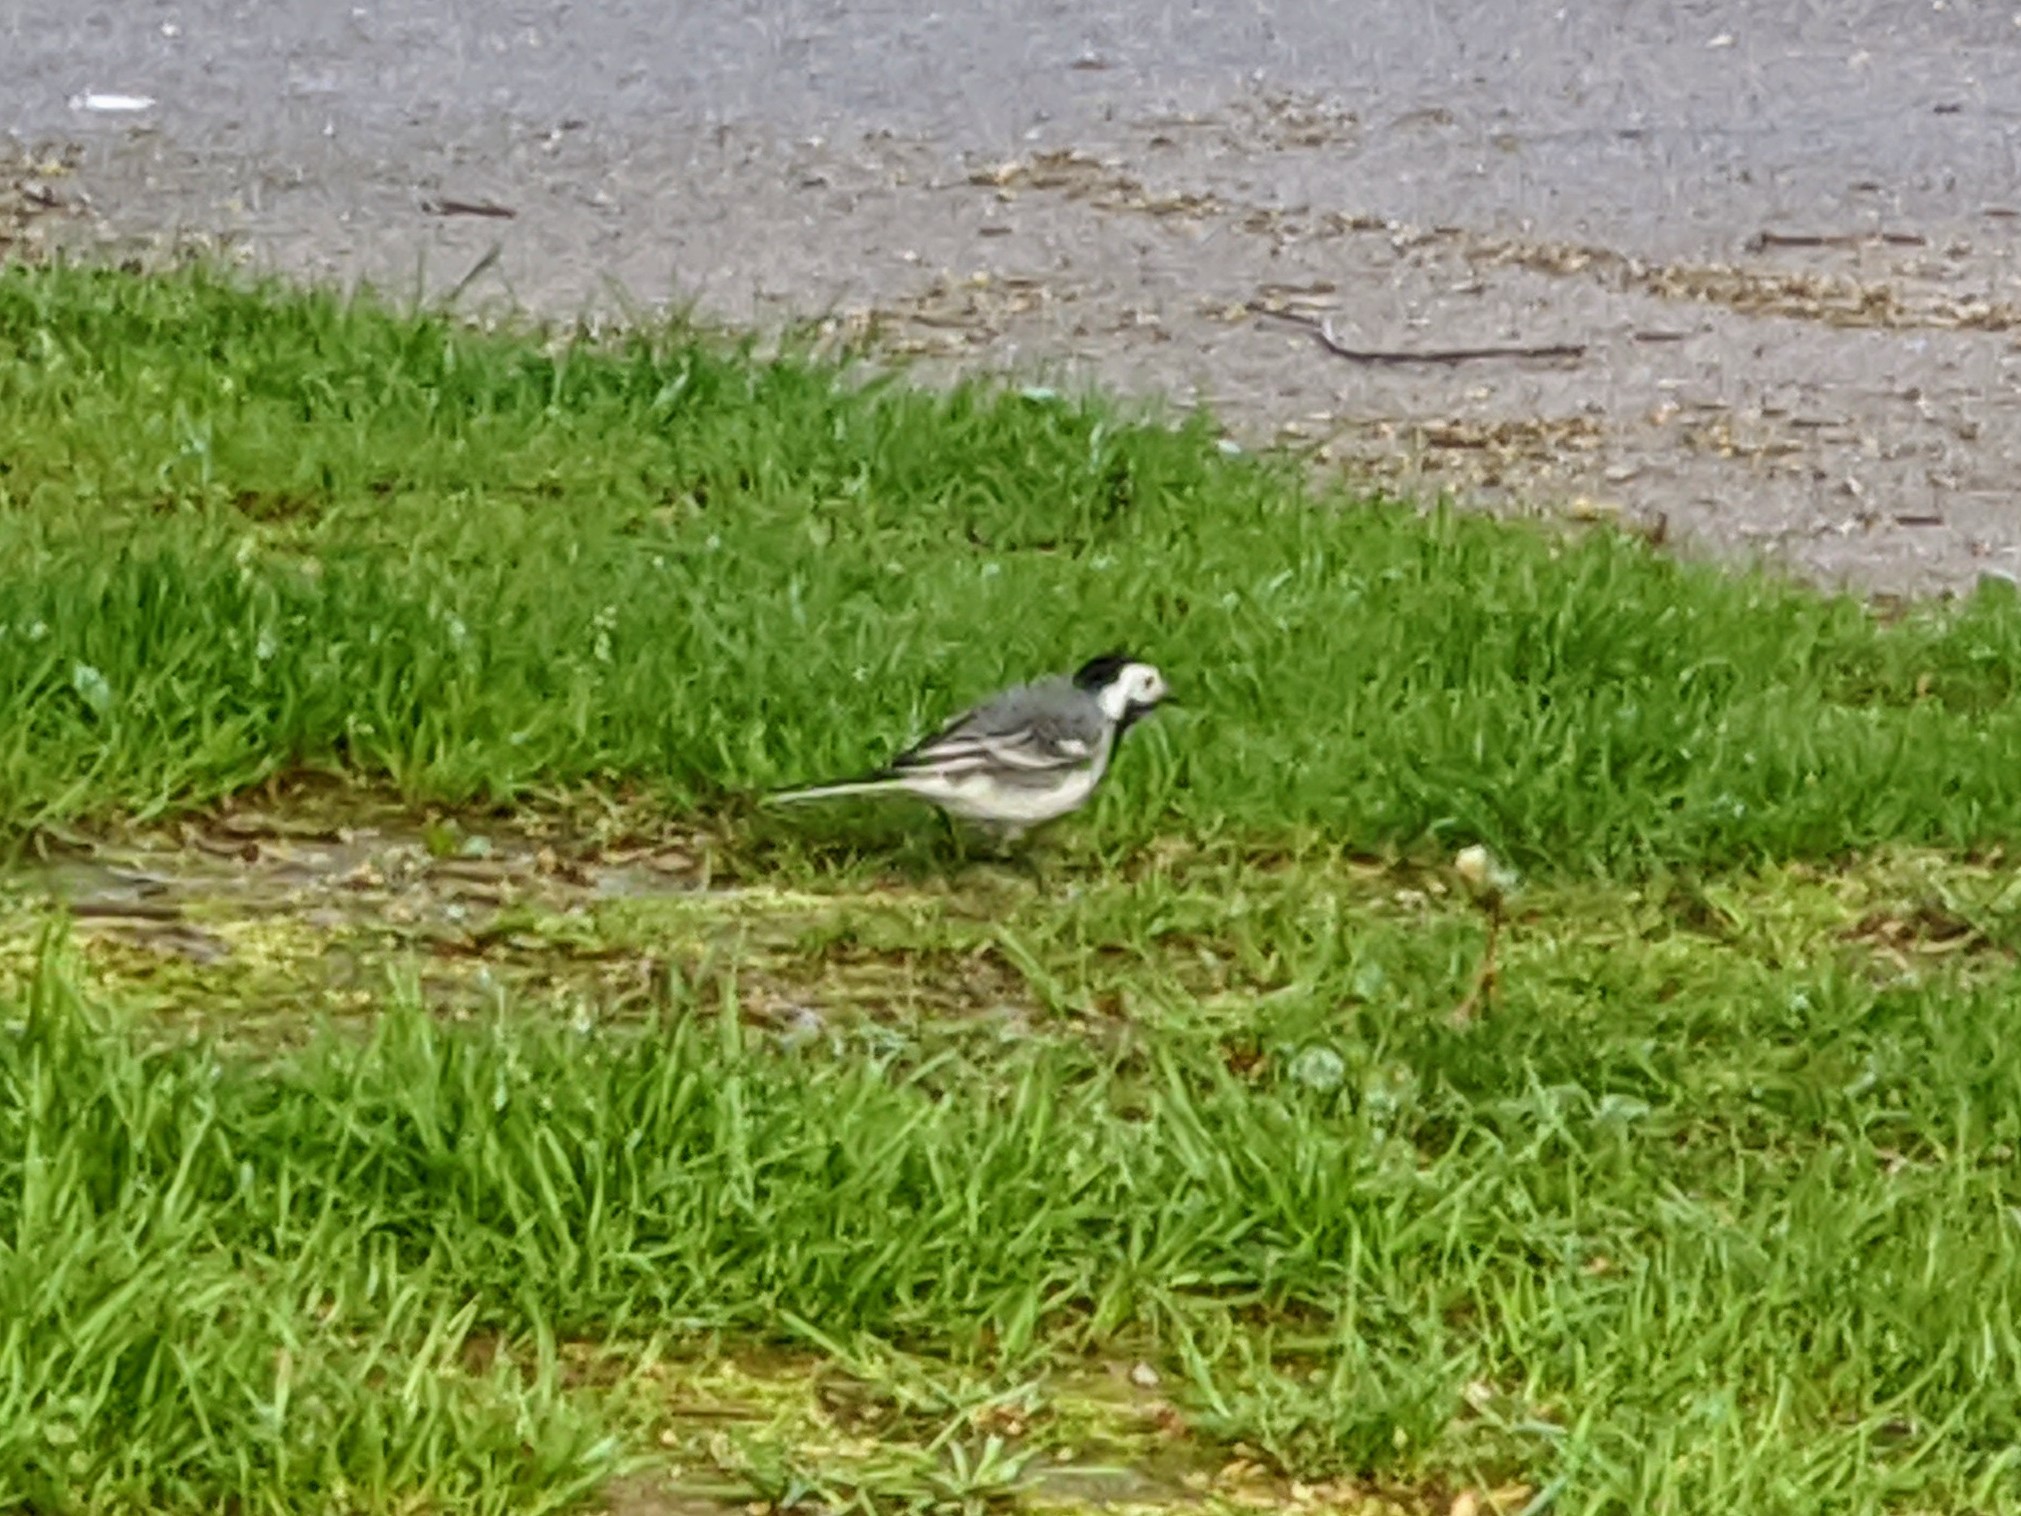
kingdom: Animalia
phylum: Chordata
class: Aves
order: Passeriformes
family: Motacillidae
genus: Motacilla
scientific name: Motacilla alba
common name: White wagtail
